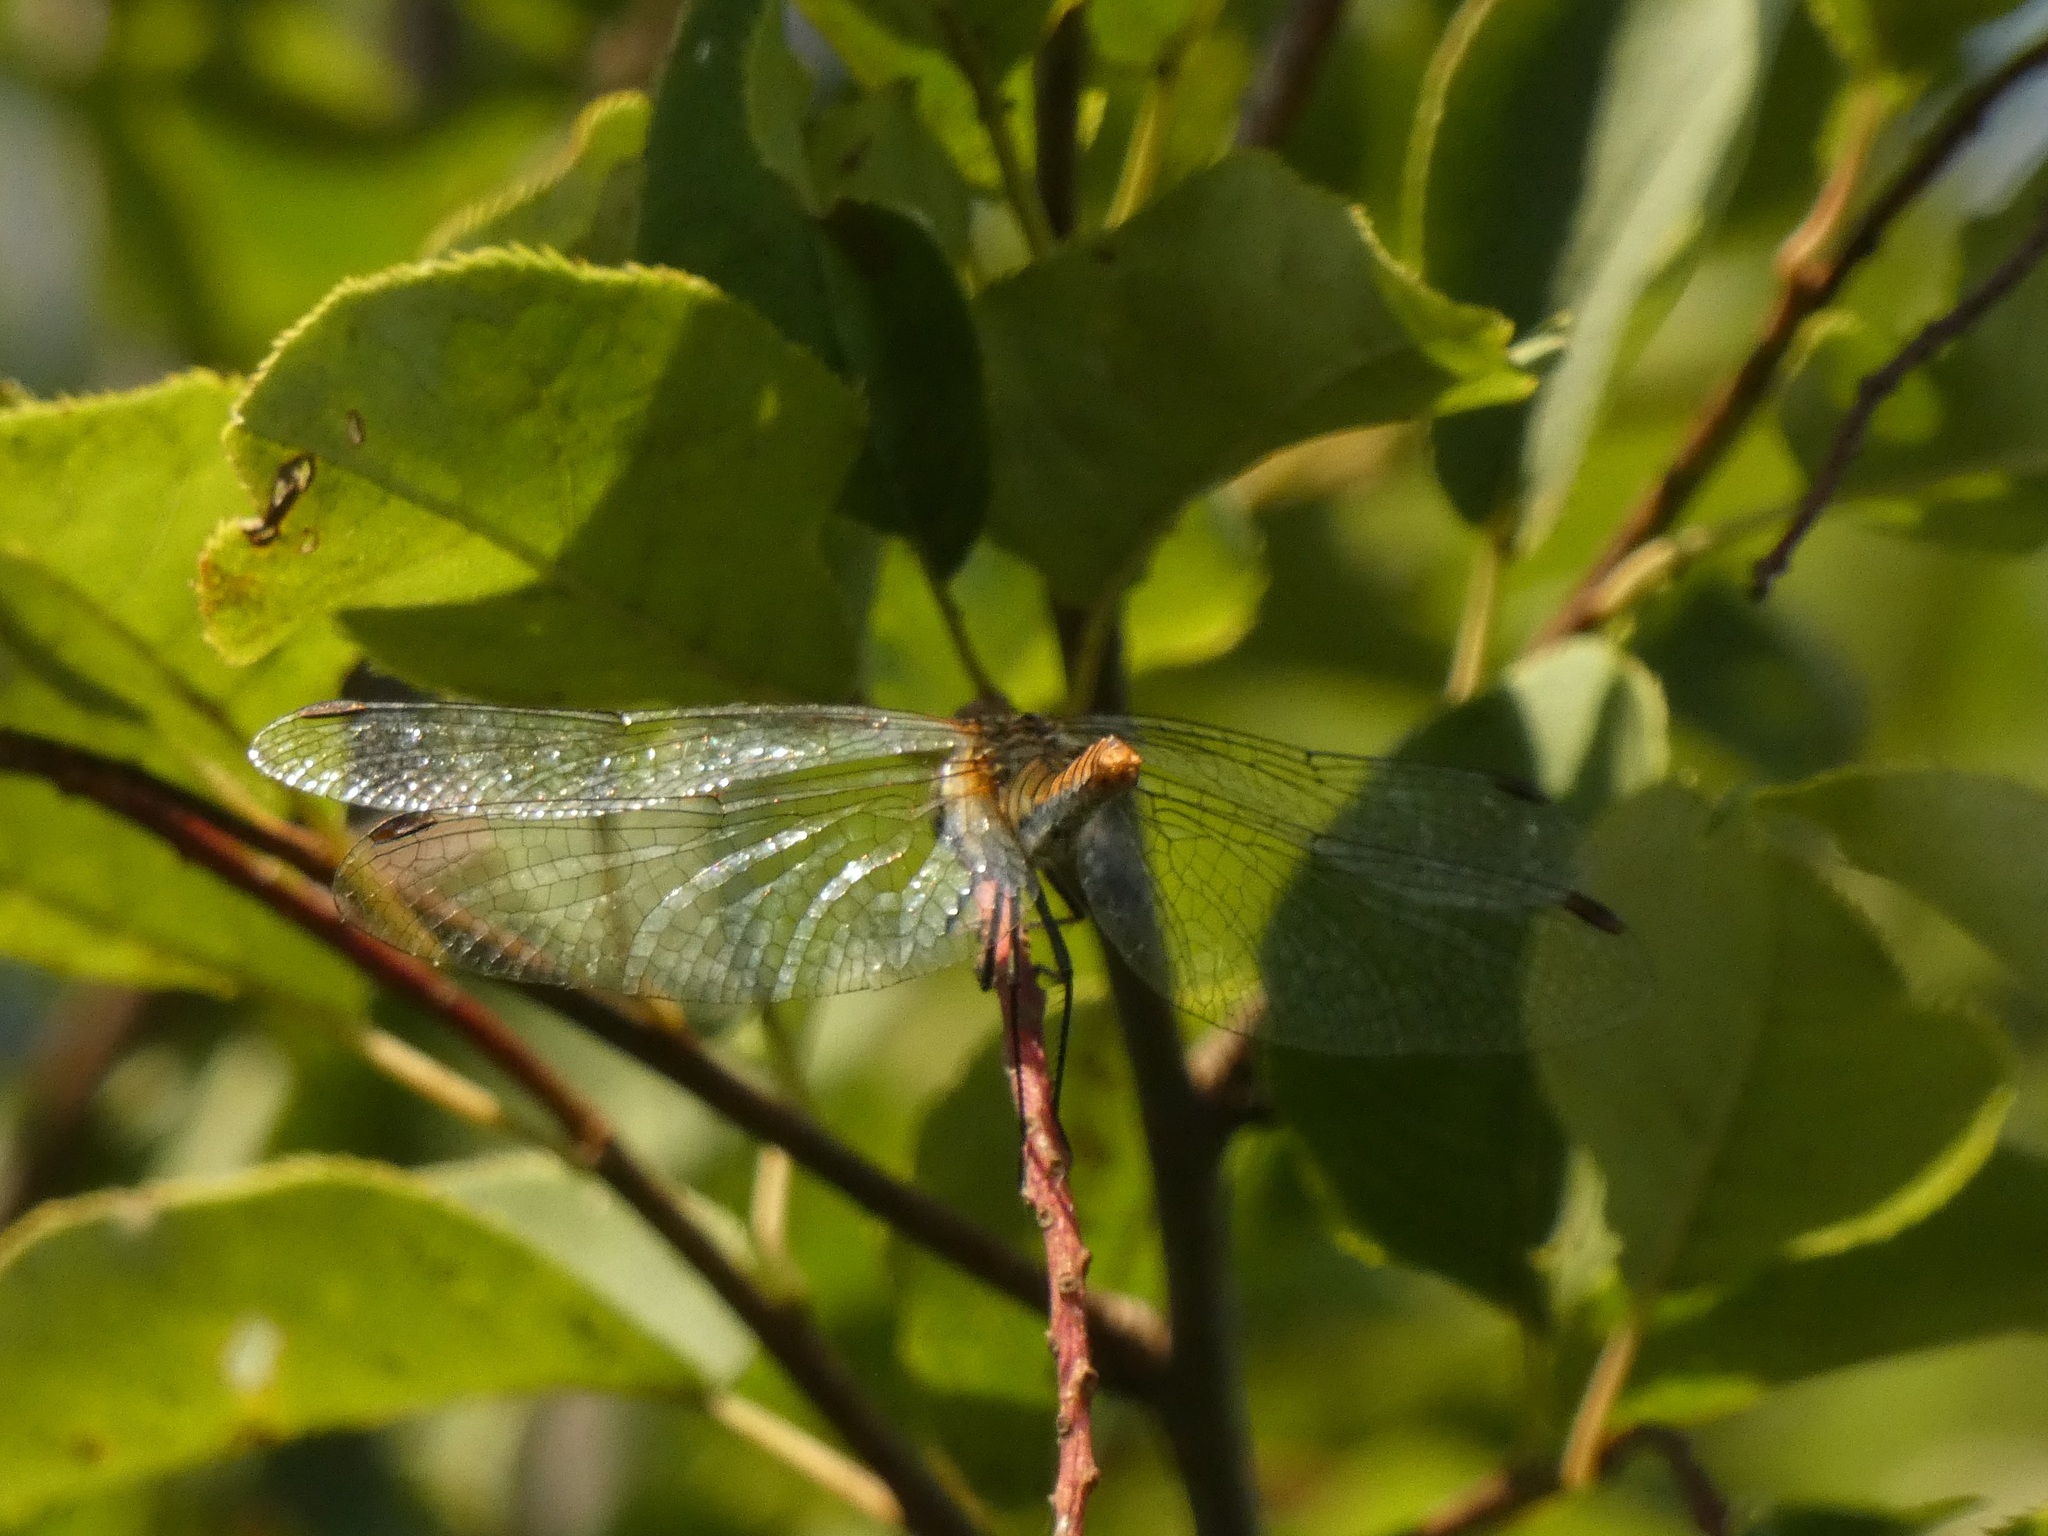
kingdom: Animalia
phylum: Arthropoda
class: Insecta
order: Odonata
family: Libellulidae
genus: Sympetrum
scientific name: Sympetrum sanguineum
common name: Ruddy darter
